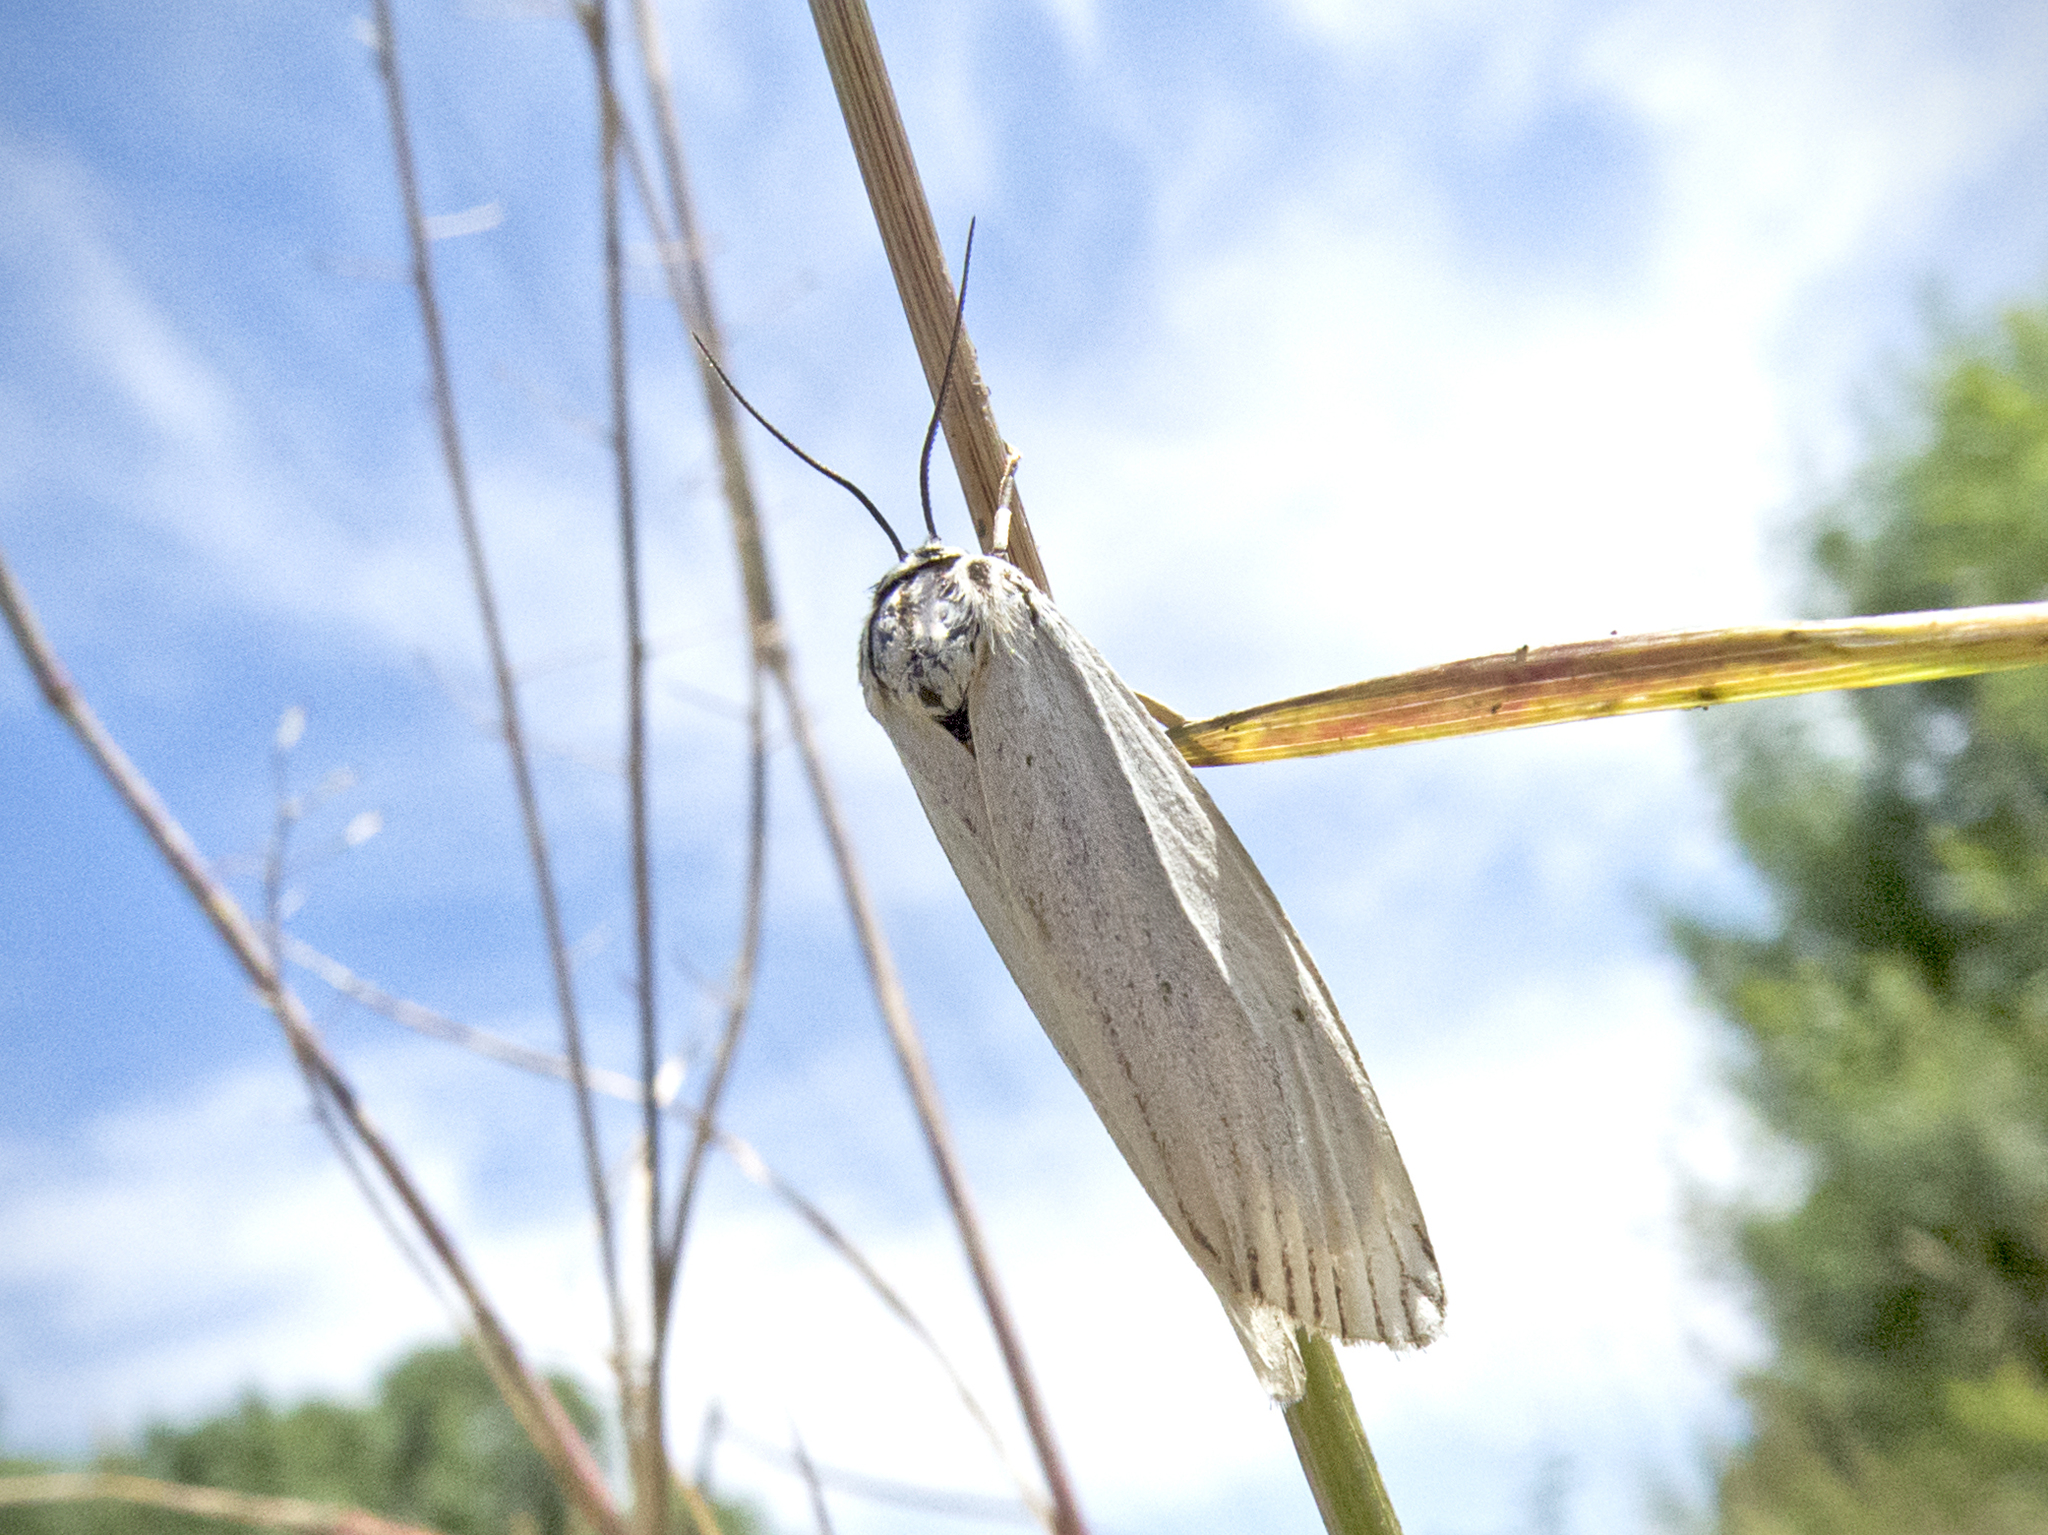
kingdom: Animalia
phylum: Arthropoda
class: Insecta
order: Lepidoptera
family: Erebidae
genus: Coscinia
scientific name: Coscinia Spiris striata
